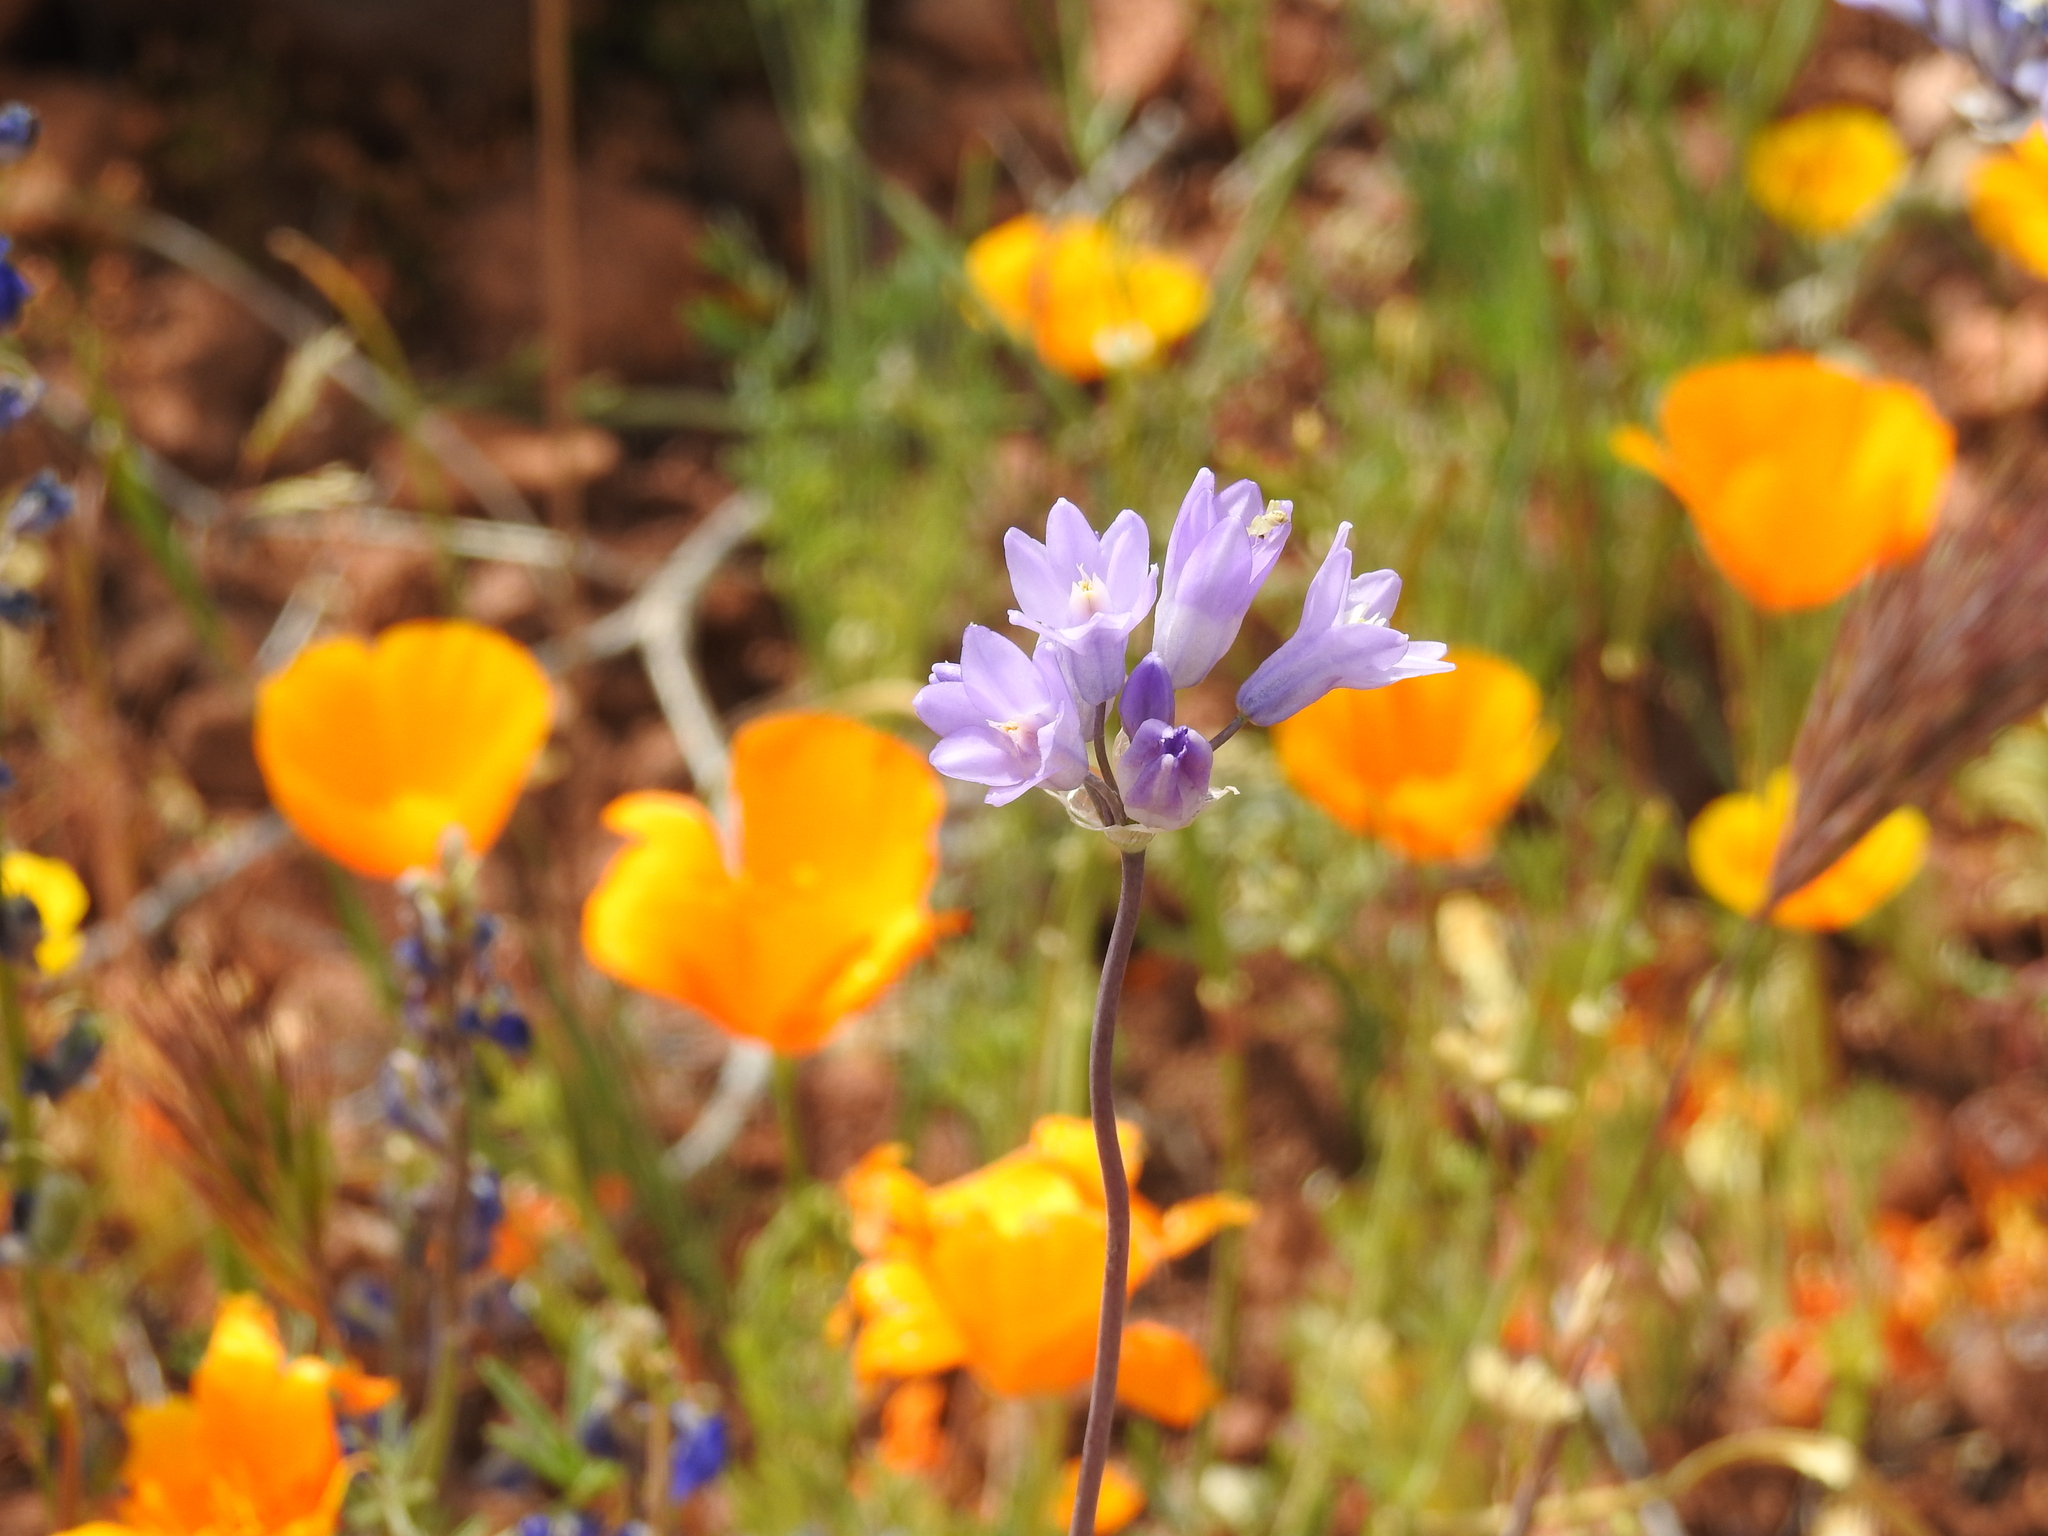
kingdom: Plantae
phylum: Tracheophyta
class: Liliopsida
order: Asparagales
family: Asparagaceae
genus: Dipterostemon
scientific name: Dipterostemon capitatus
